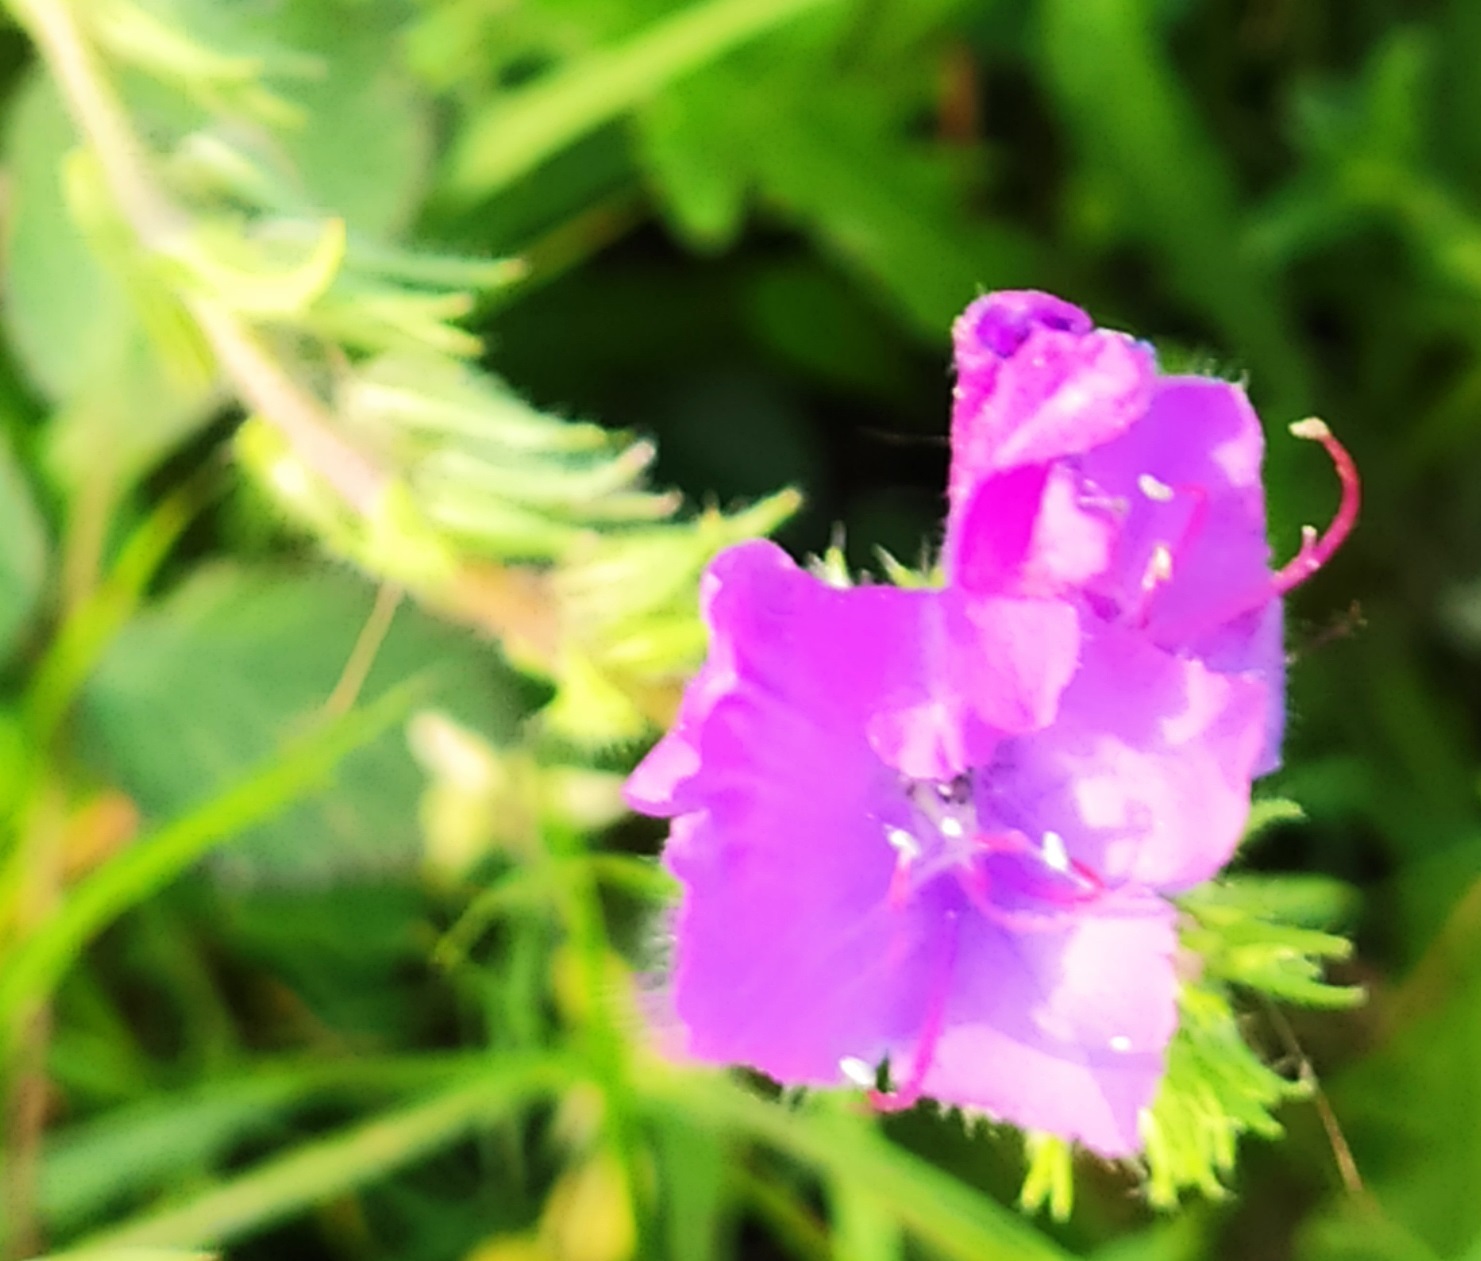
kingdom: Plantae
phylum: Tracheophyta
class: Magnoliopsida
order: Boraginales
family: Boraginaceae
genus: Echium
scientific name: Echium plantagineum
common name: Purple viper's-bugloss
